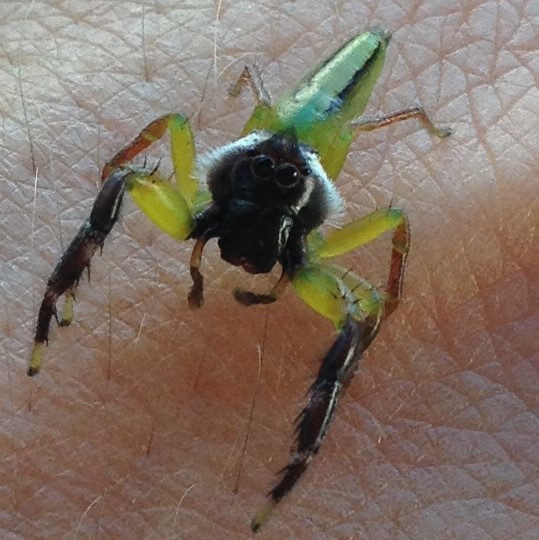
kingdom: Animalia
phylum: Arthropoda
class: Arachnida
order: Araneae
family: Salticidae
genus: Mopsus
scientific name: Mopsus mormon
